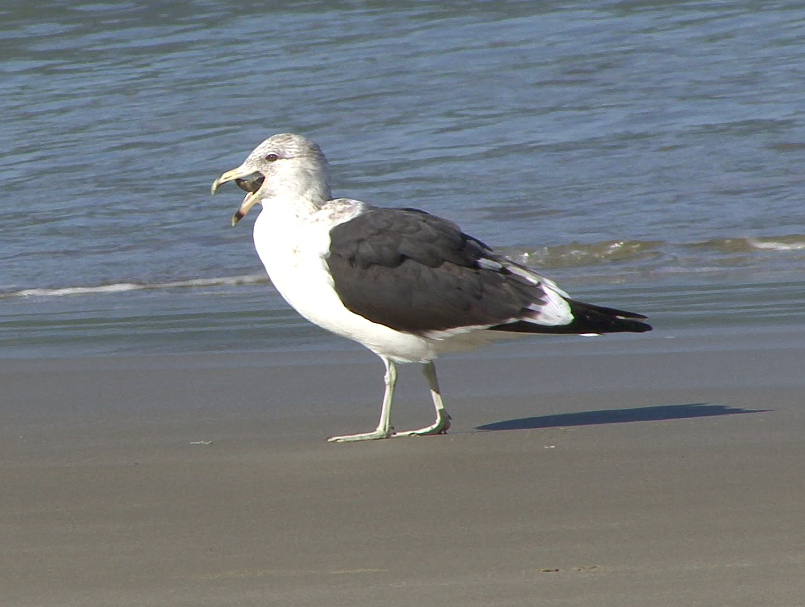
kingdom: Animalia
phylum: Chordata
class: Aves
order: Charadriiformes
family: Laridae
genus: Larus
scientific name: Larus dominicanus
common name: Kelp gull
